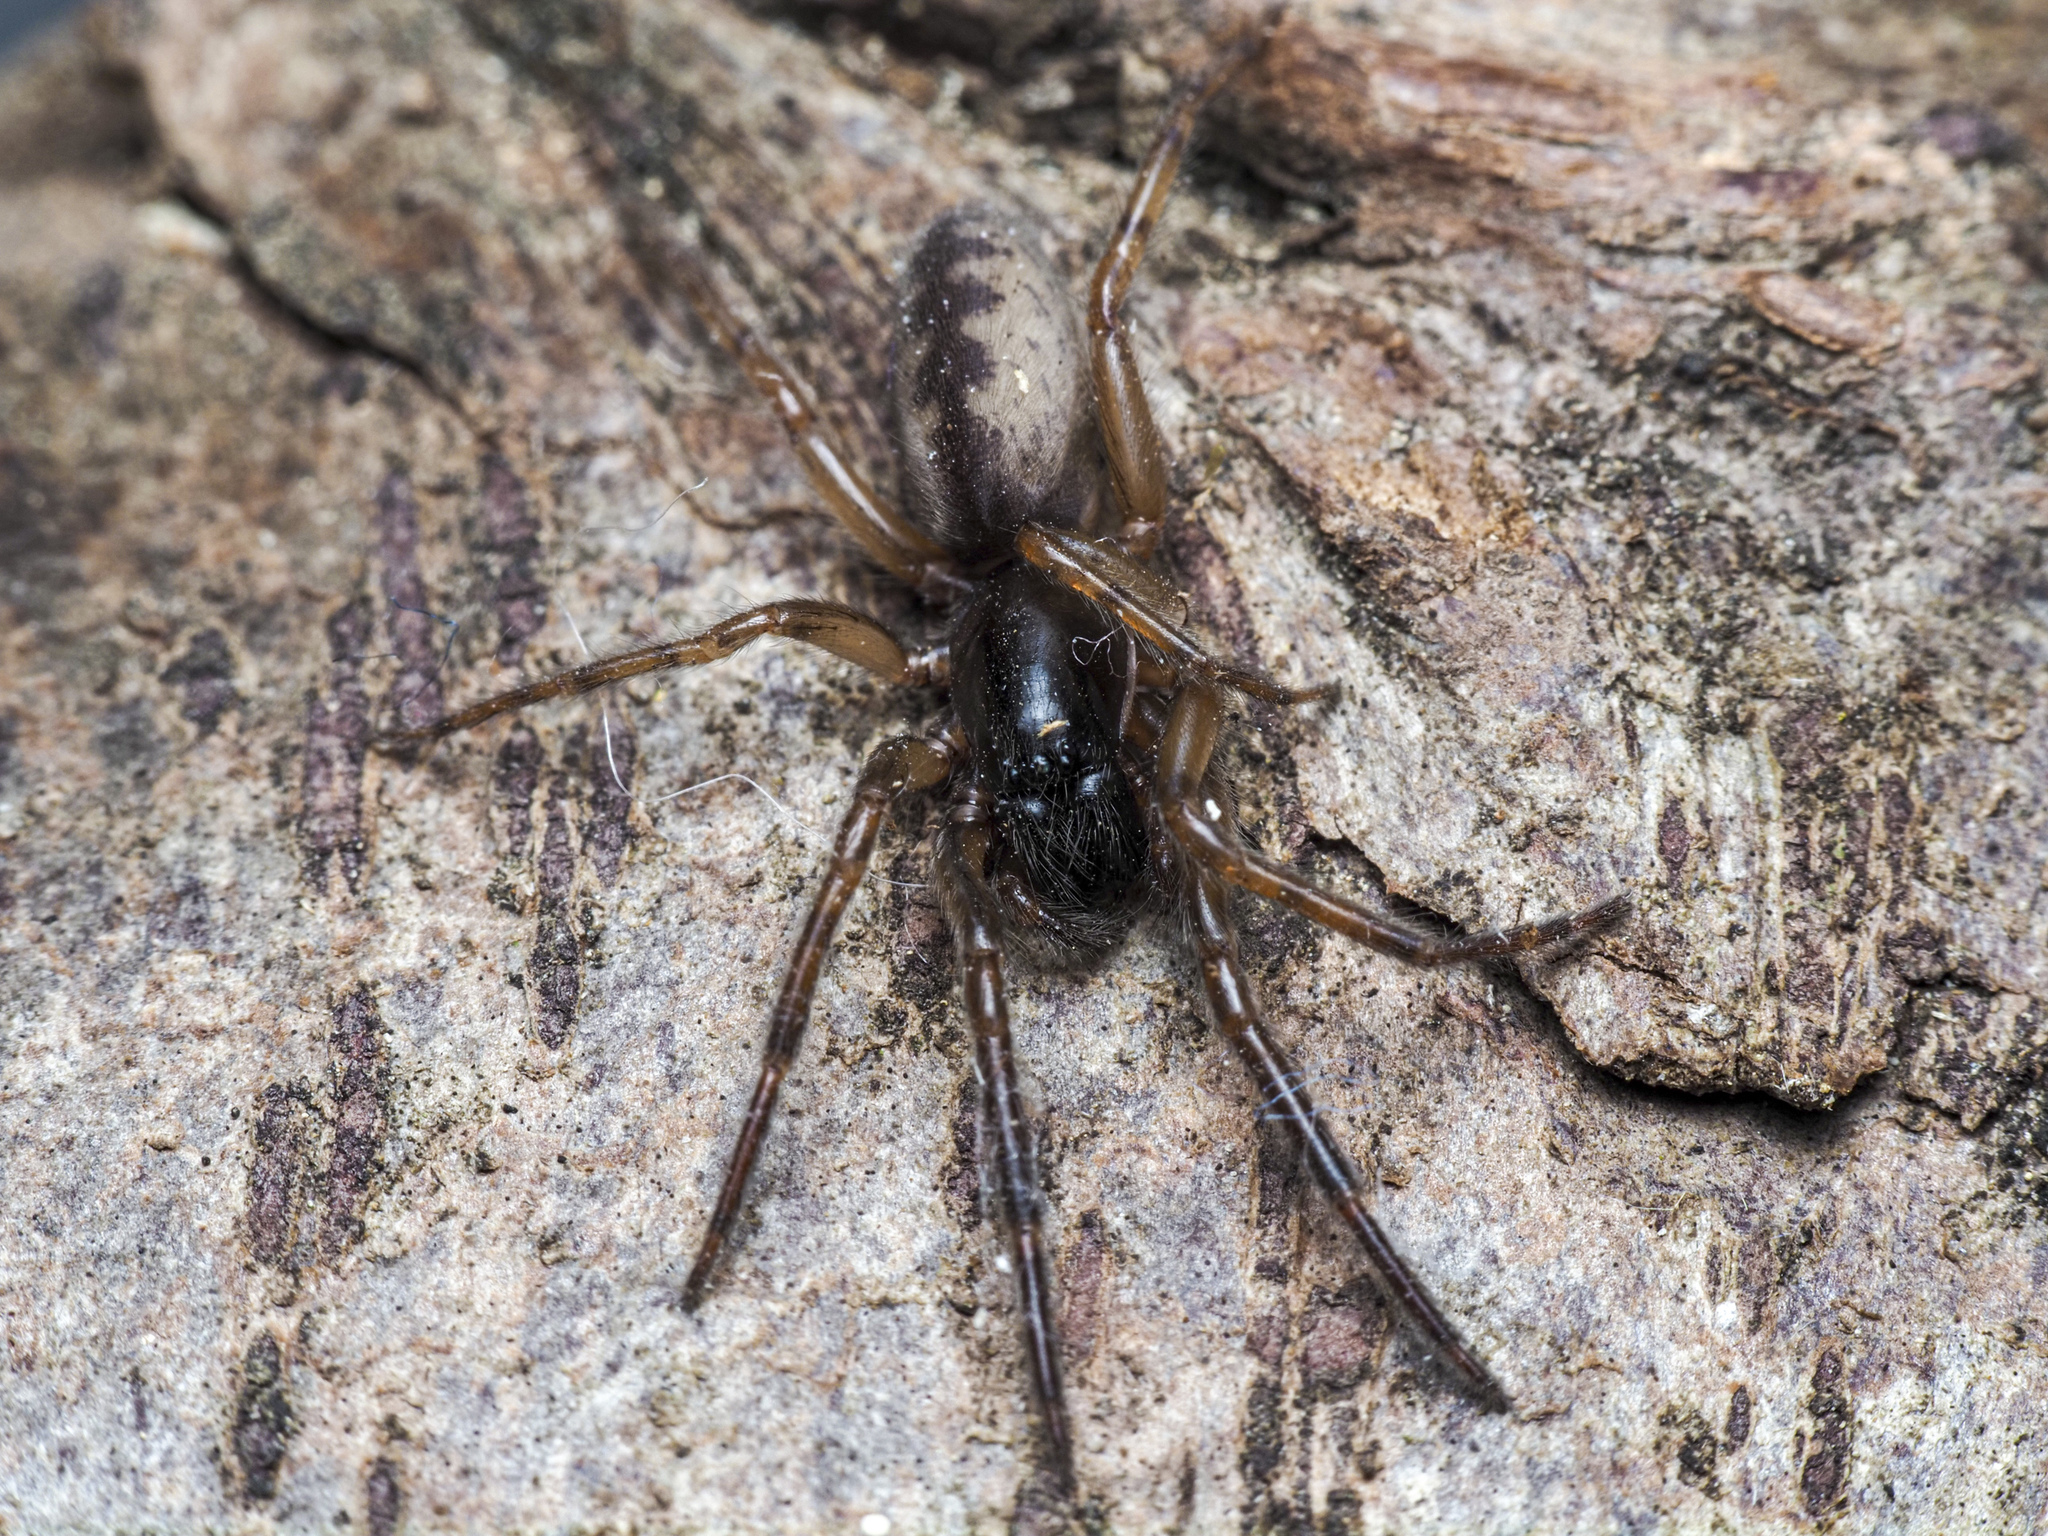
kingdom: Animalia
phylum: Arthropoda
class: Arachnida
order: Araneae
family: Segestriidae
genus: Segestria
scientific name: Segestria senoculata
